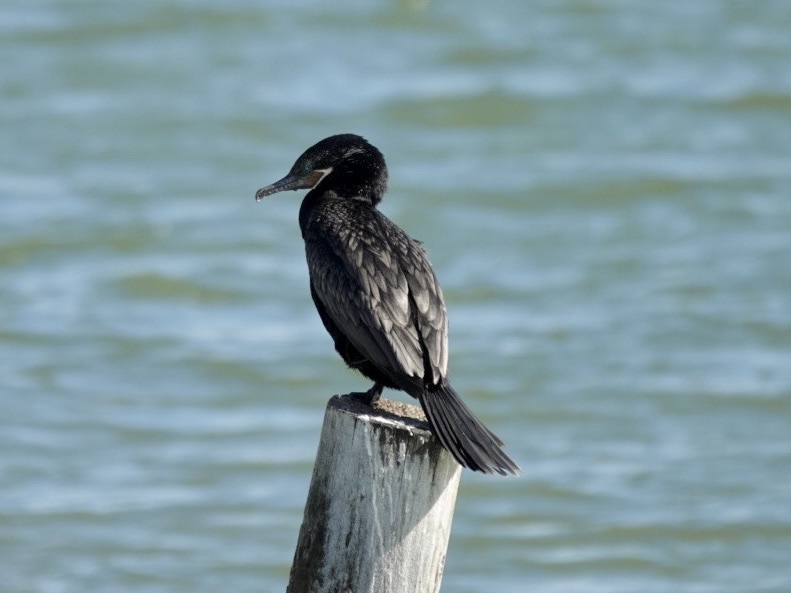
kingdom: Animalia
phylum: Chordata
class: Aves
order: Suliformes
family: Phalacrocoracidae
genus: Phalacrocorax
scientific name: Phalacrocorax brasilianus
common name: Neotropic cormorant
